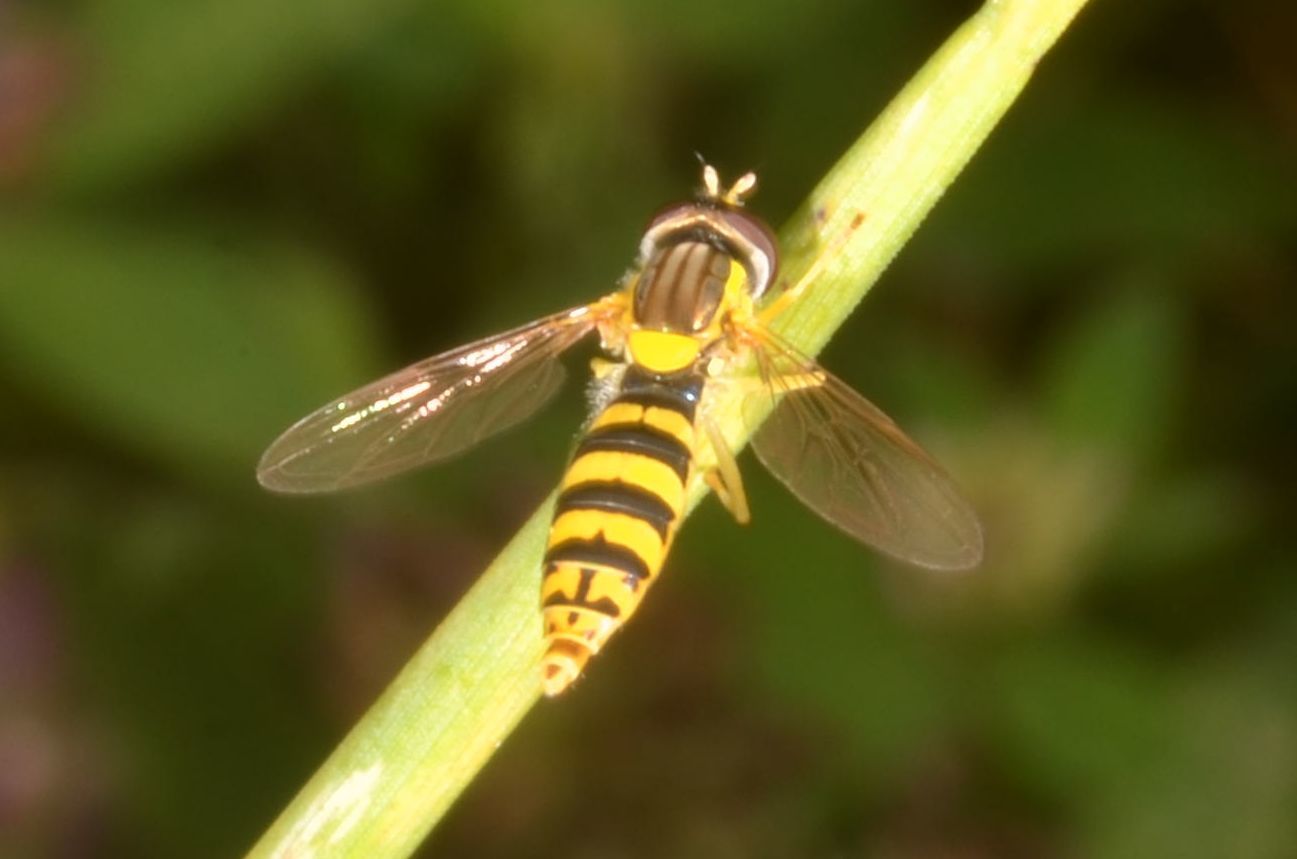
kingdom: Animalia
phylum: Arthropoda
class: Insecta
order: Diptera
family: Syrphidae
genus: Sphaerophoria
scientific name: Sphaerophoria scripta
